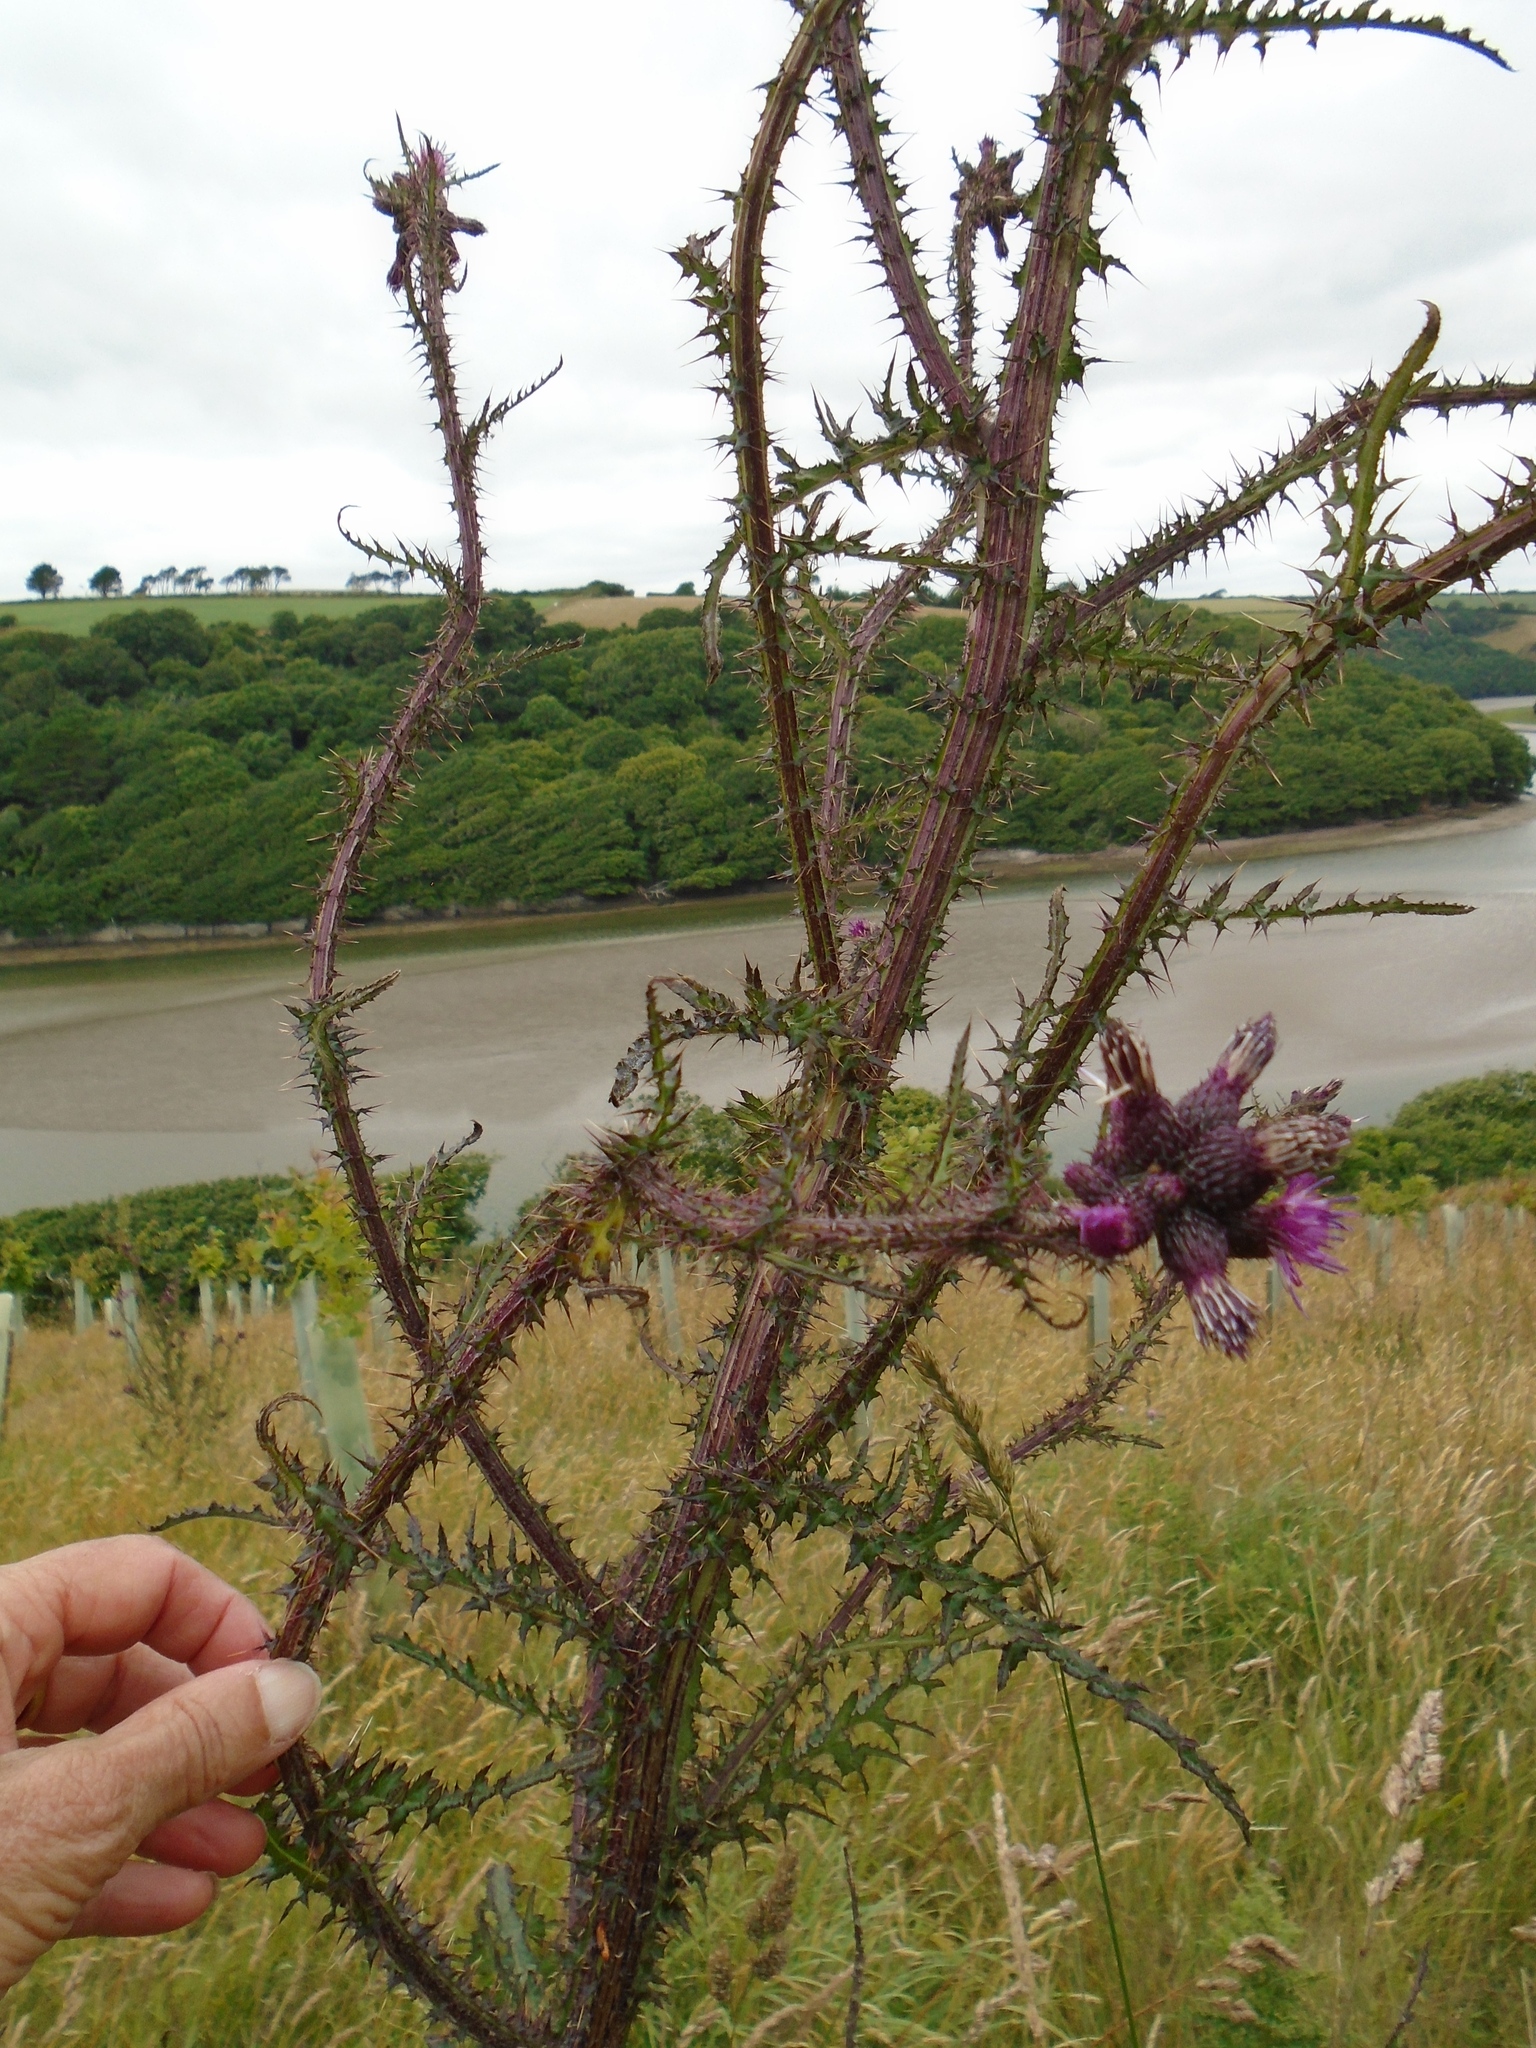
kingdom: Plantae
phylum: Tracheophyta
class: Magnoliopsida
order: Asterales
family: Asteraceae
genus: Cirsium
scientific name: Cirsium palustre
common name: Marsh thistle
